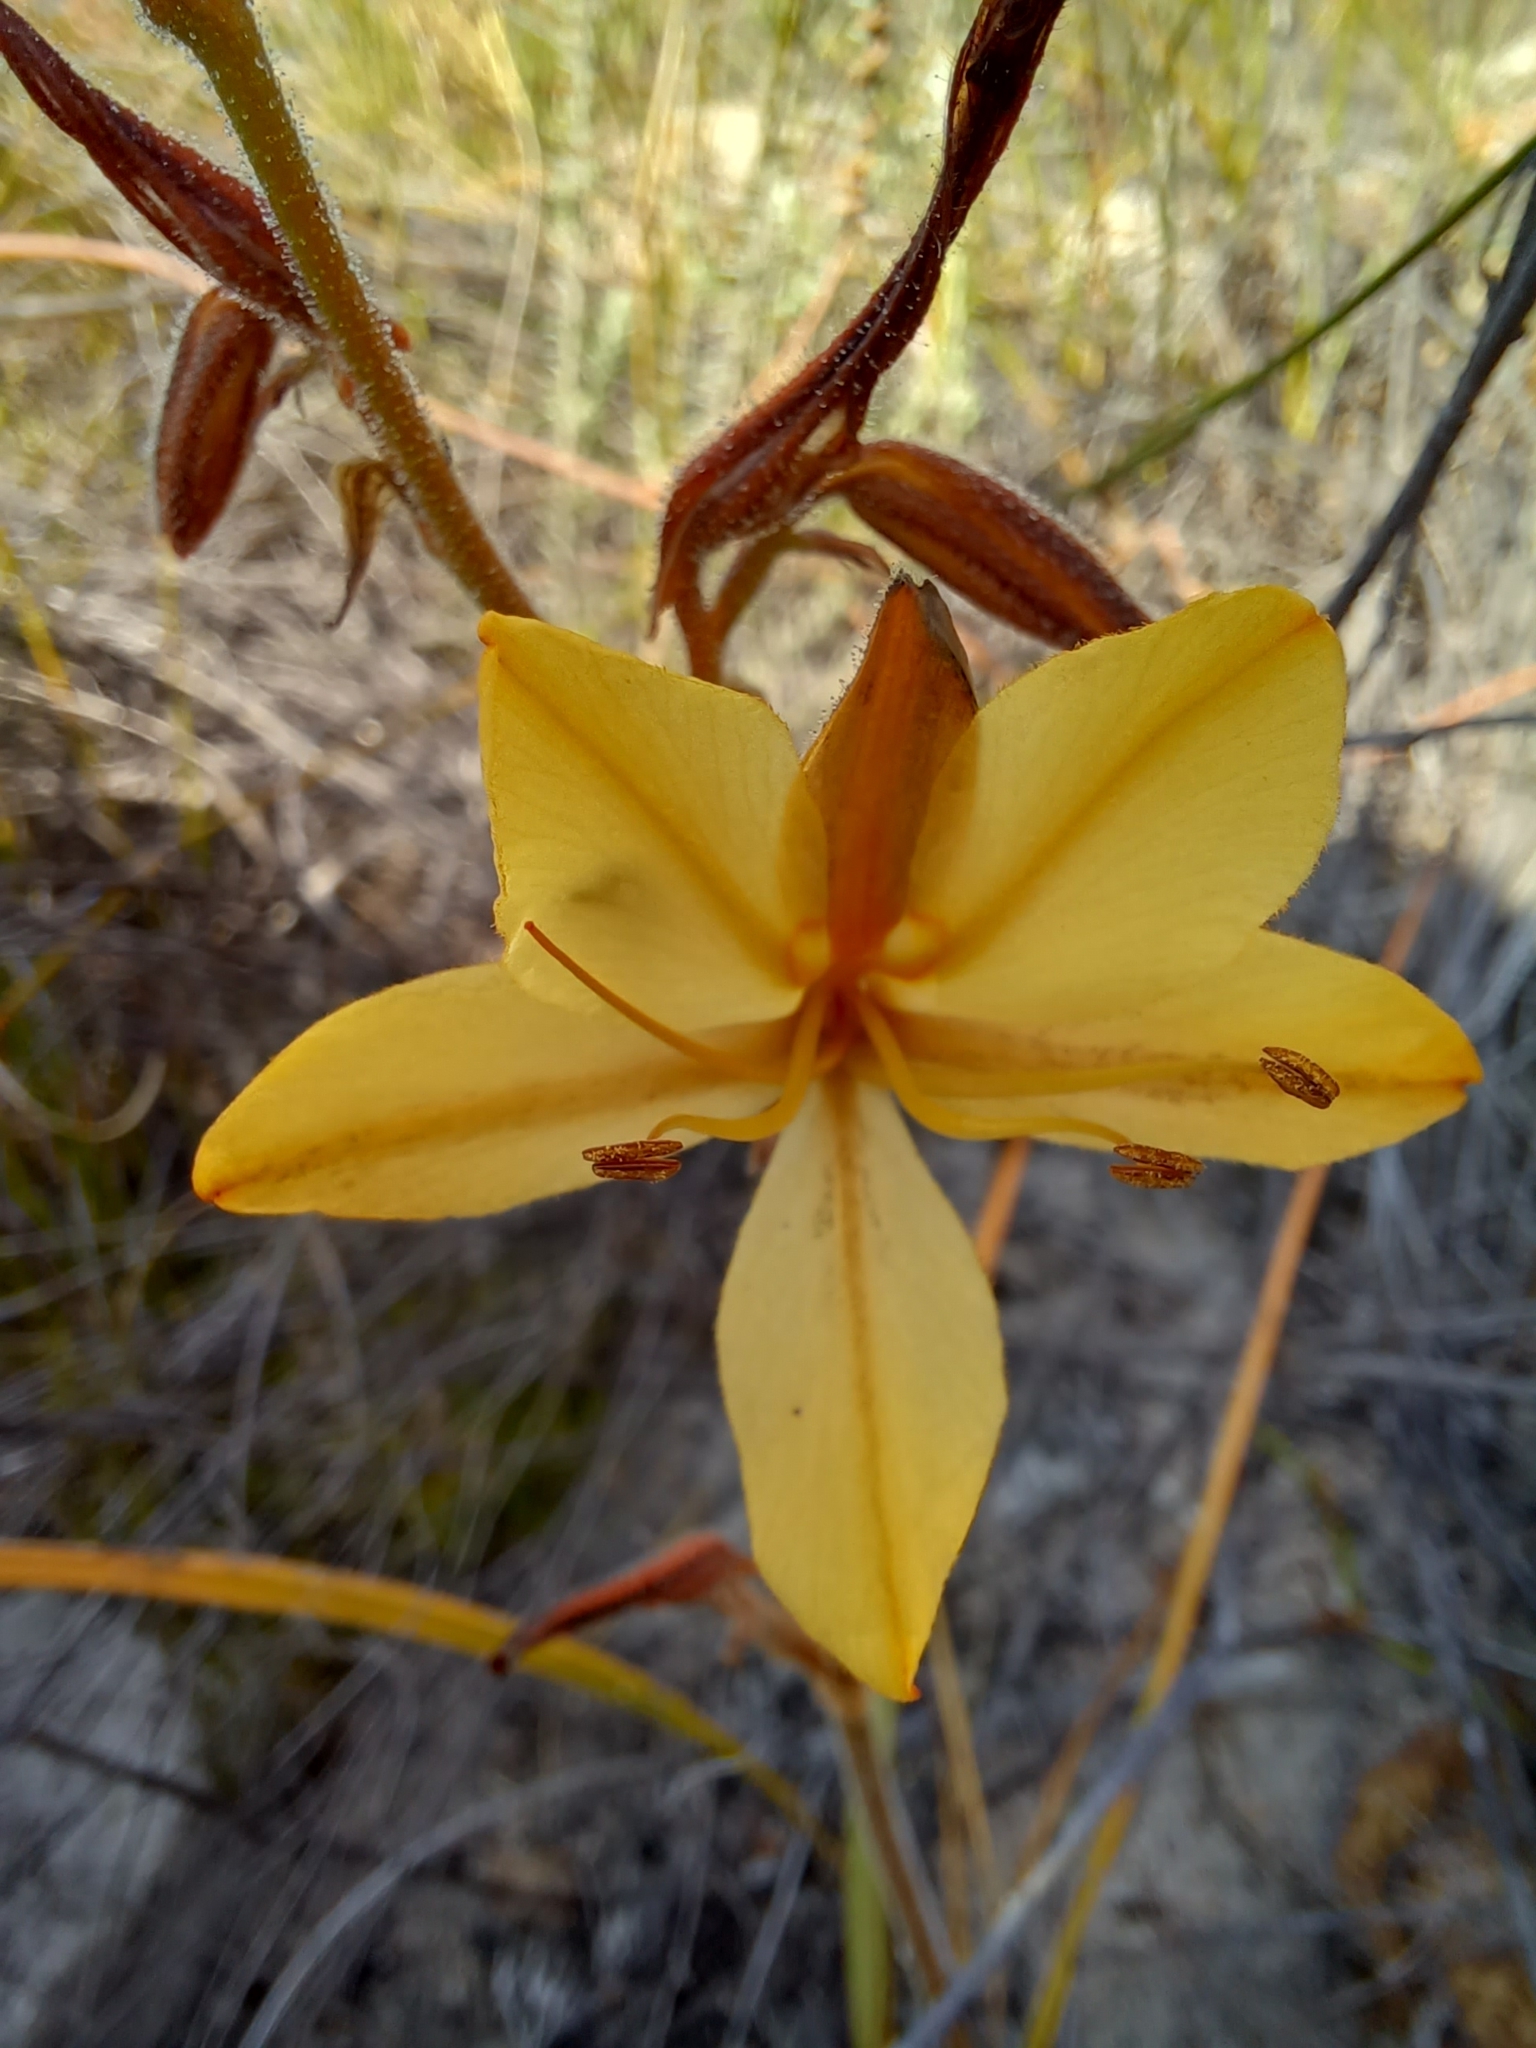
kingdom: Plantae
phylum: Tracheophyta
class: Liliopsida
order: Commelinales
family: Haemodoraceae
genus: Wachendorfia
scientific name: Wachendorfia paniculata
